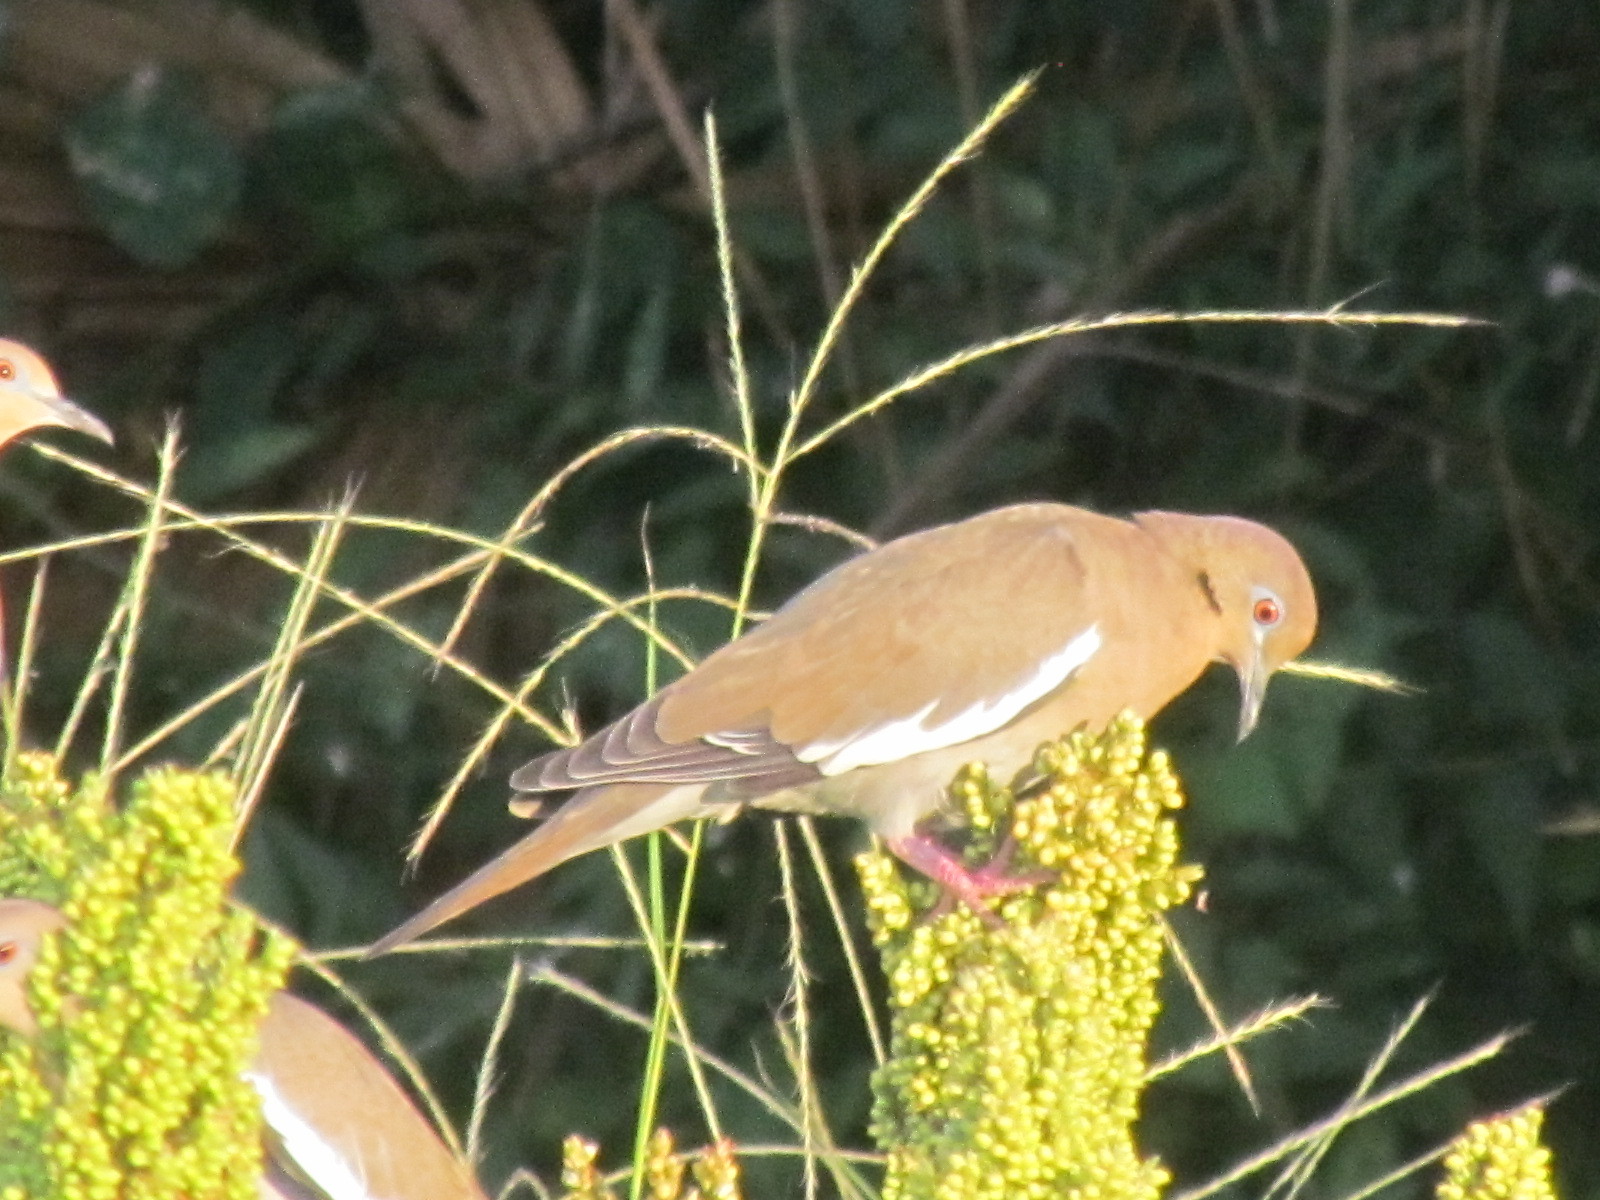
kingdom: Animalia
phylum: Chordata
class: Aves
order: Columbiformes
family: Columbidae
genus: Zenaida
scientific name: Zenaida asiatica
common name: White-winged dove
